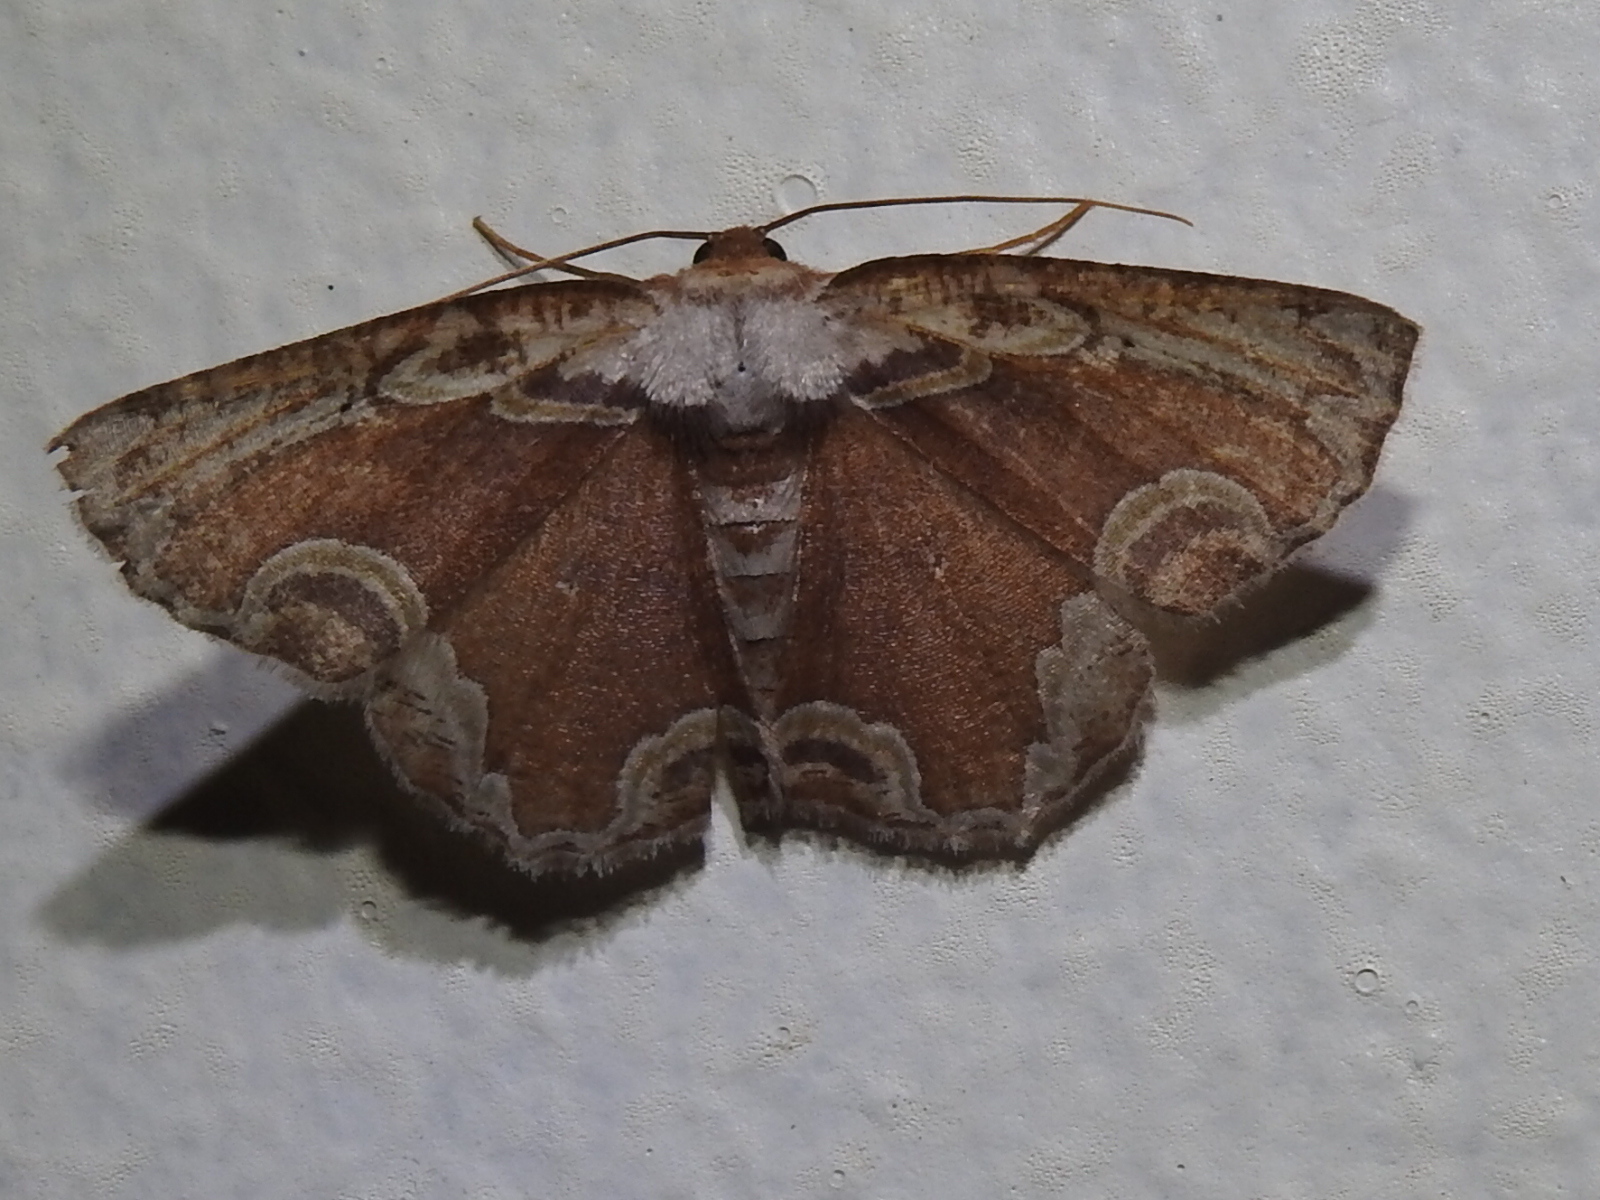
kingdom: Animalia
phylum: Arthropoda
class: Insecta
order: Lepidoptera
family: Geometridae
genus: Sabulodes
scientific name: Sabulodes ornatissima
